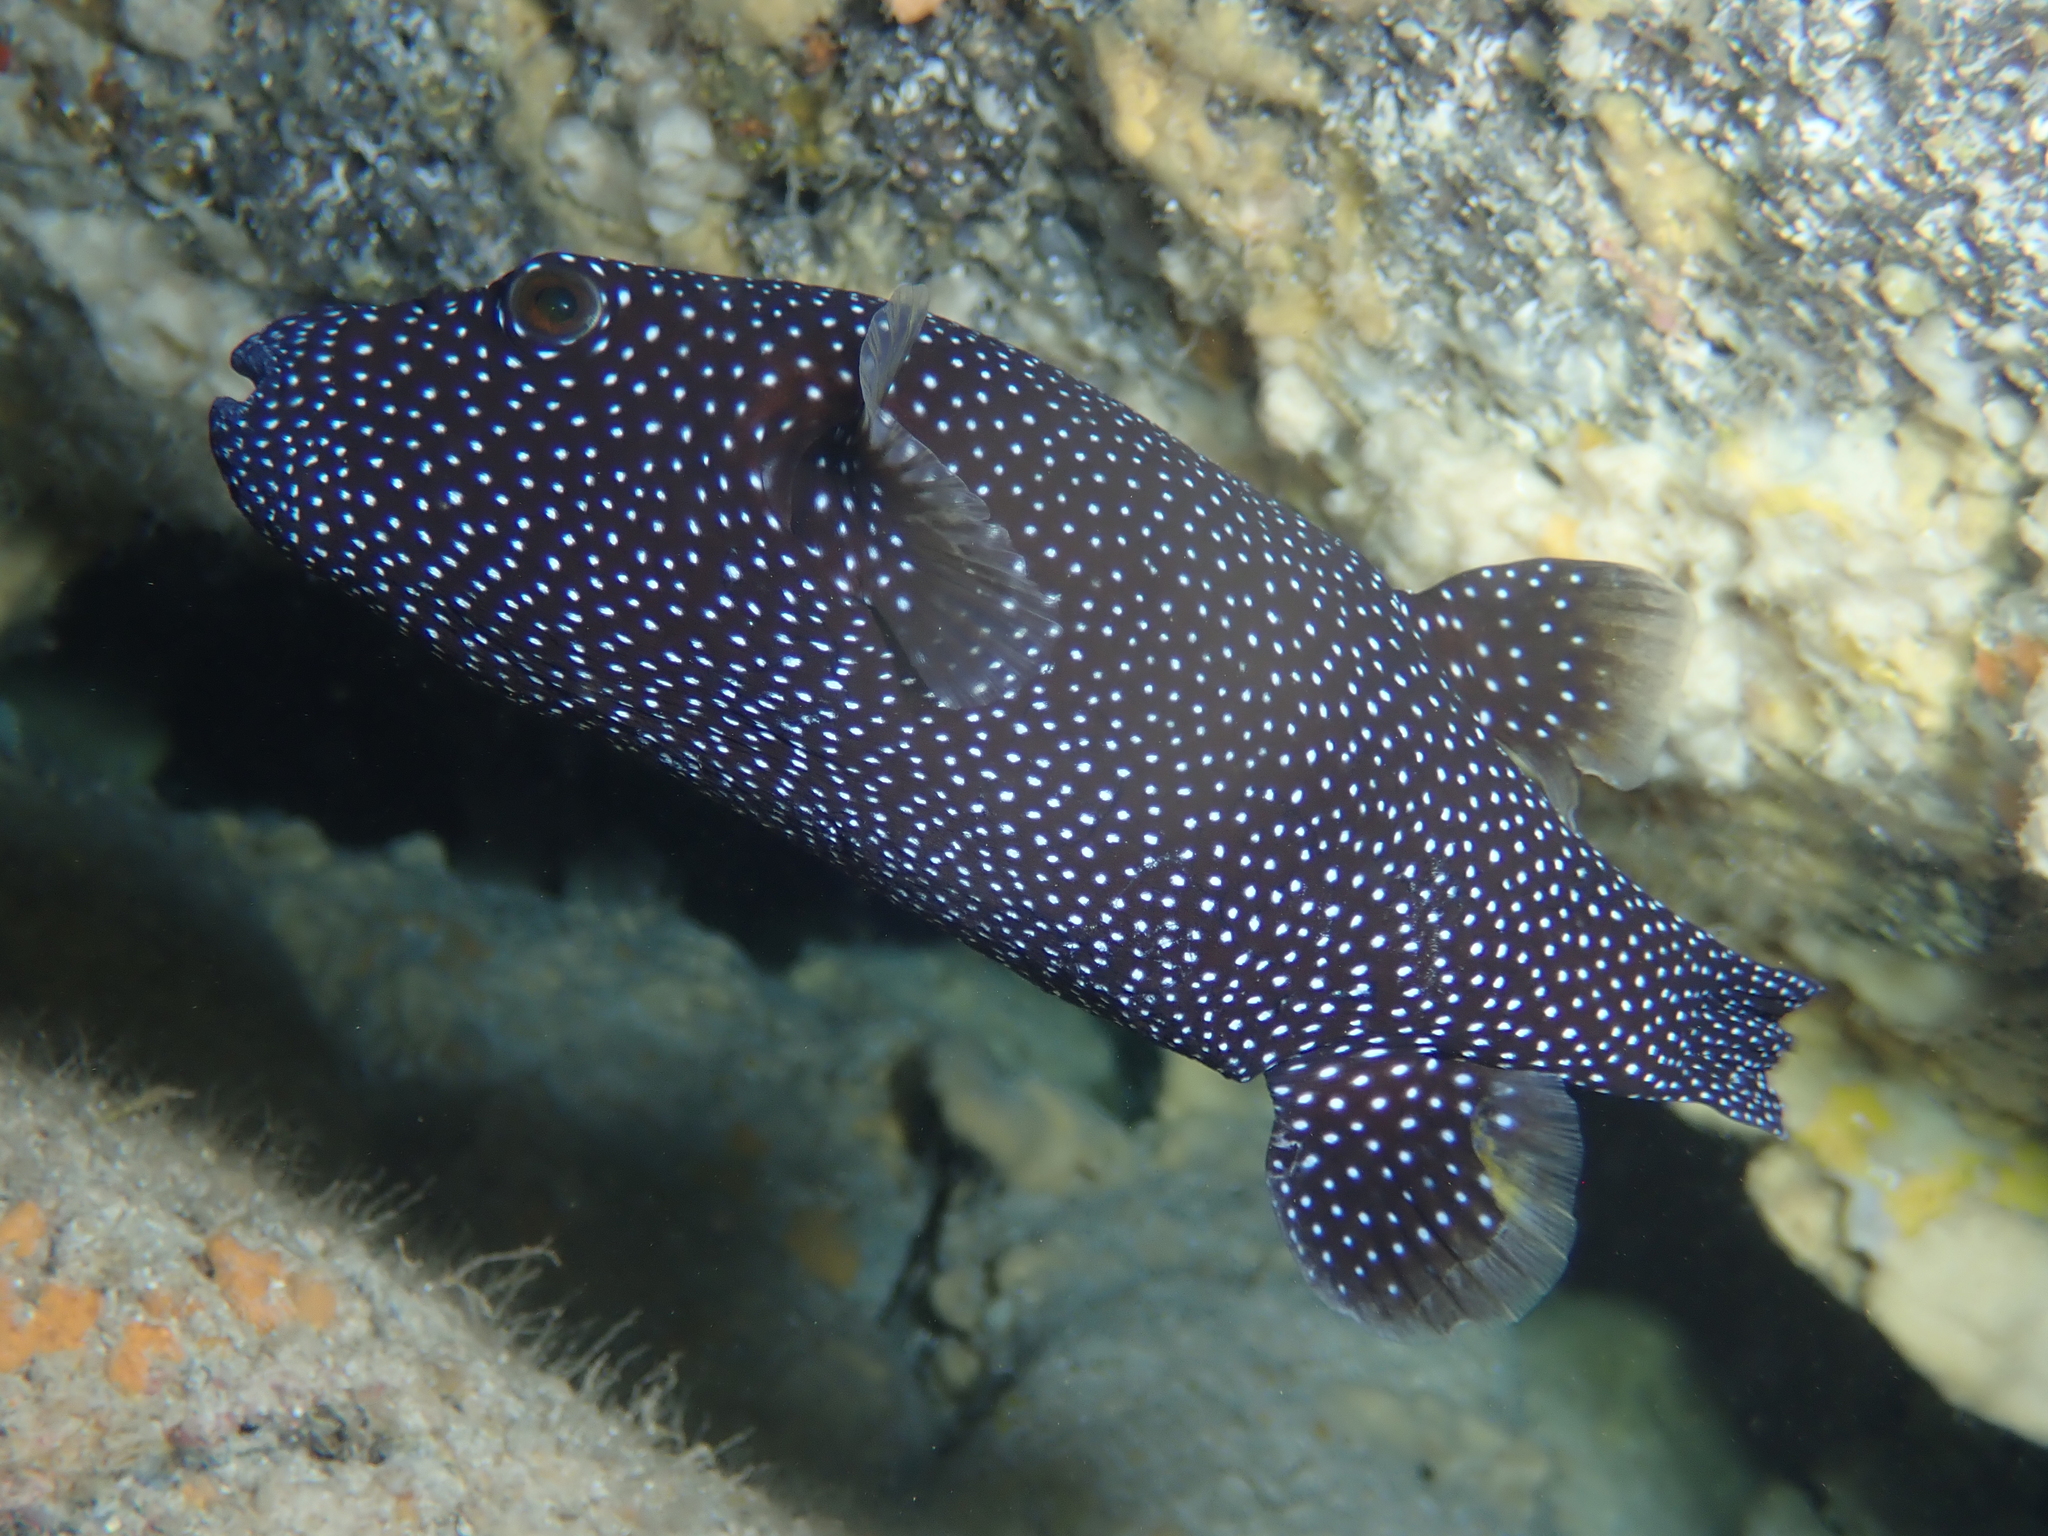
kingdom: Animalia
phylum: Chordata
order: Tetraodontiformes
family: Tetraodontidae
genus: Arothron
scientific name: Arothron meleagris
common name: Guinea-fowl pufferfish
